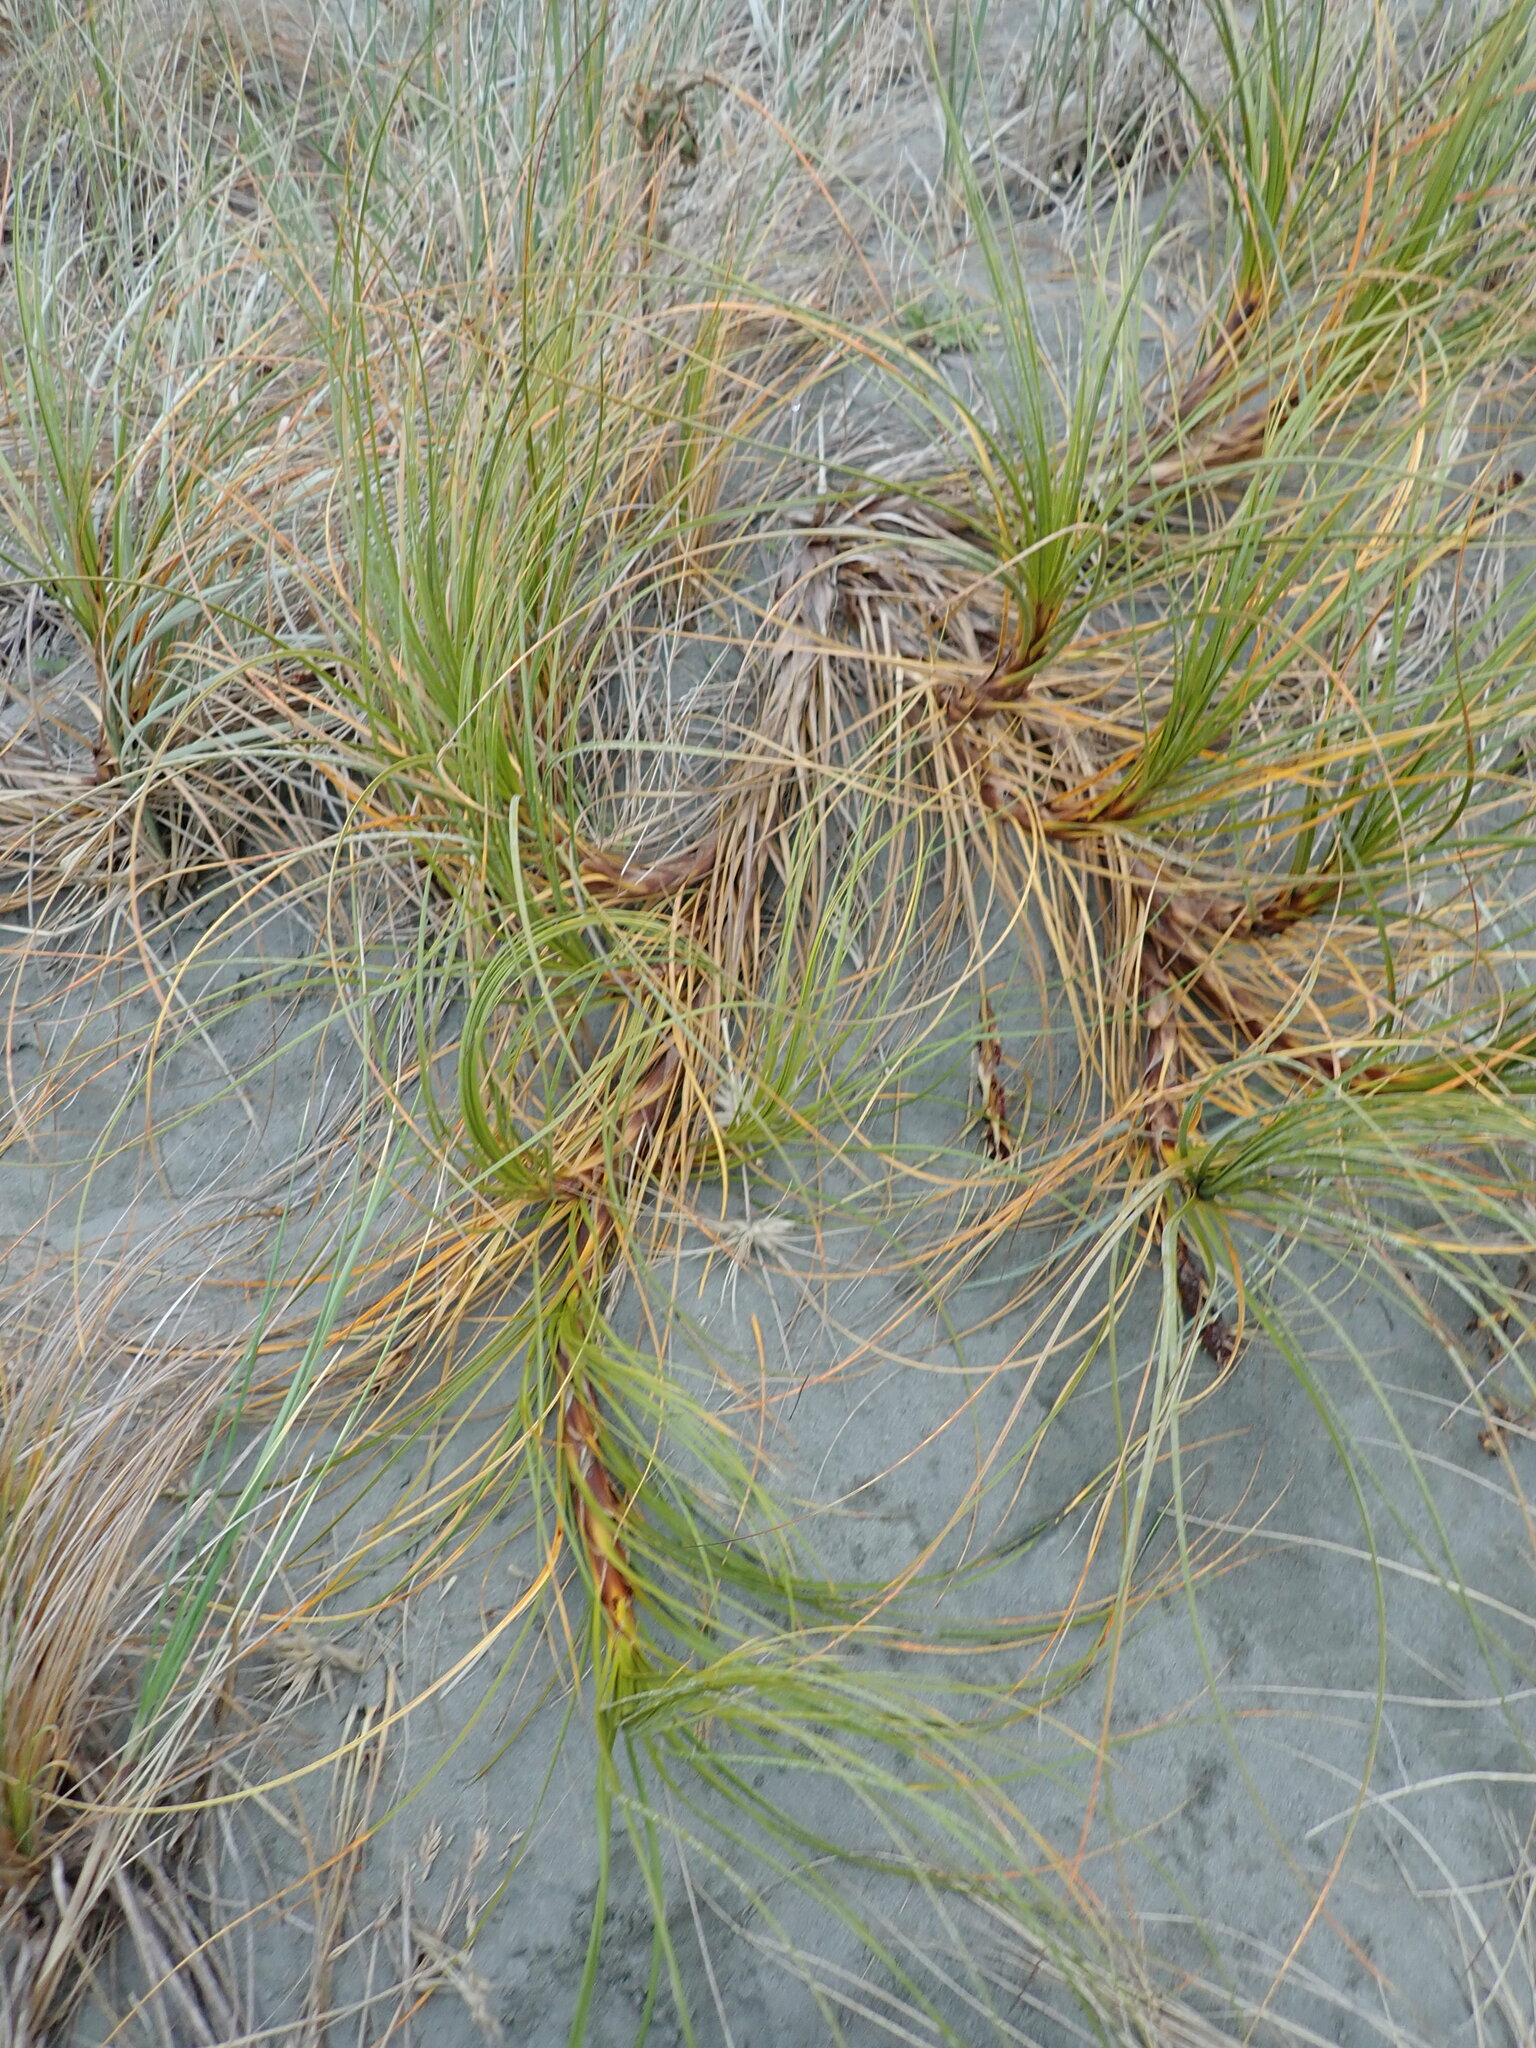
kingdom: Plantae
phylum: Tracheophyta
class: Liliopsida
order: Poales
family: Cyperaceae
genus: Ficinia
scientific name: Ficinia spiralis
